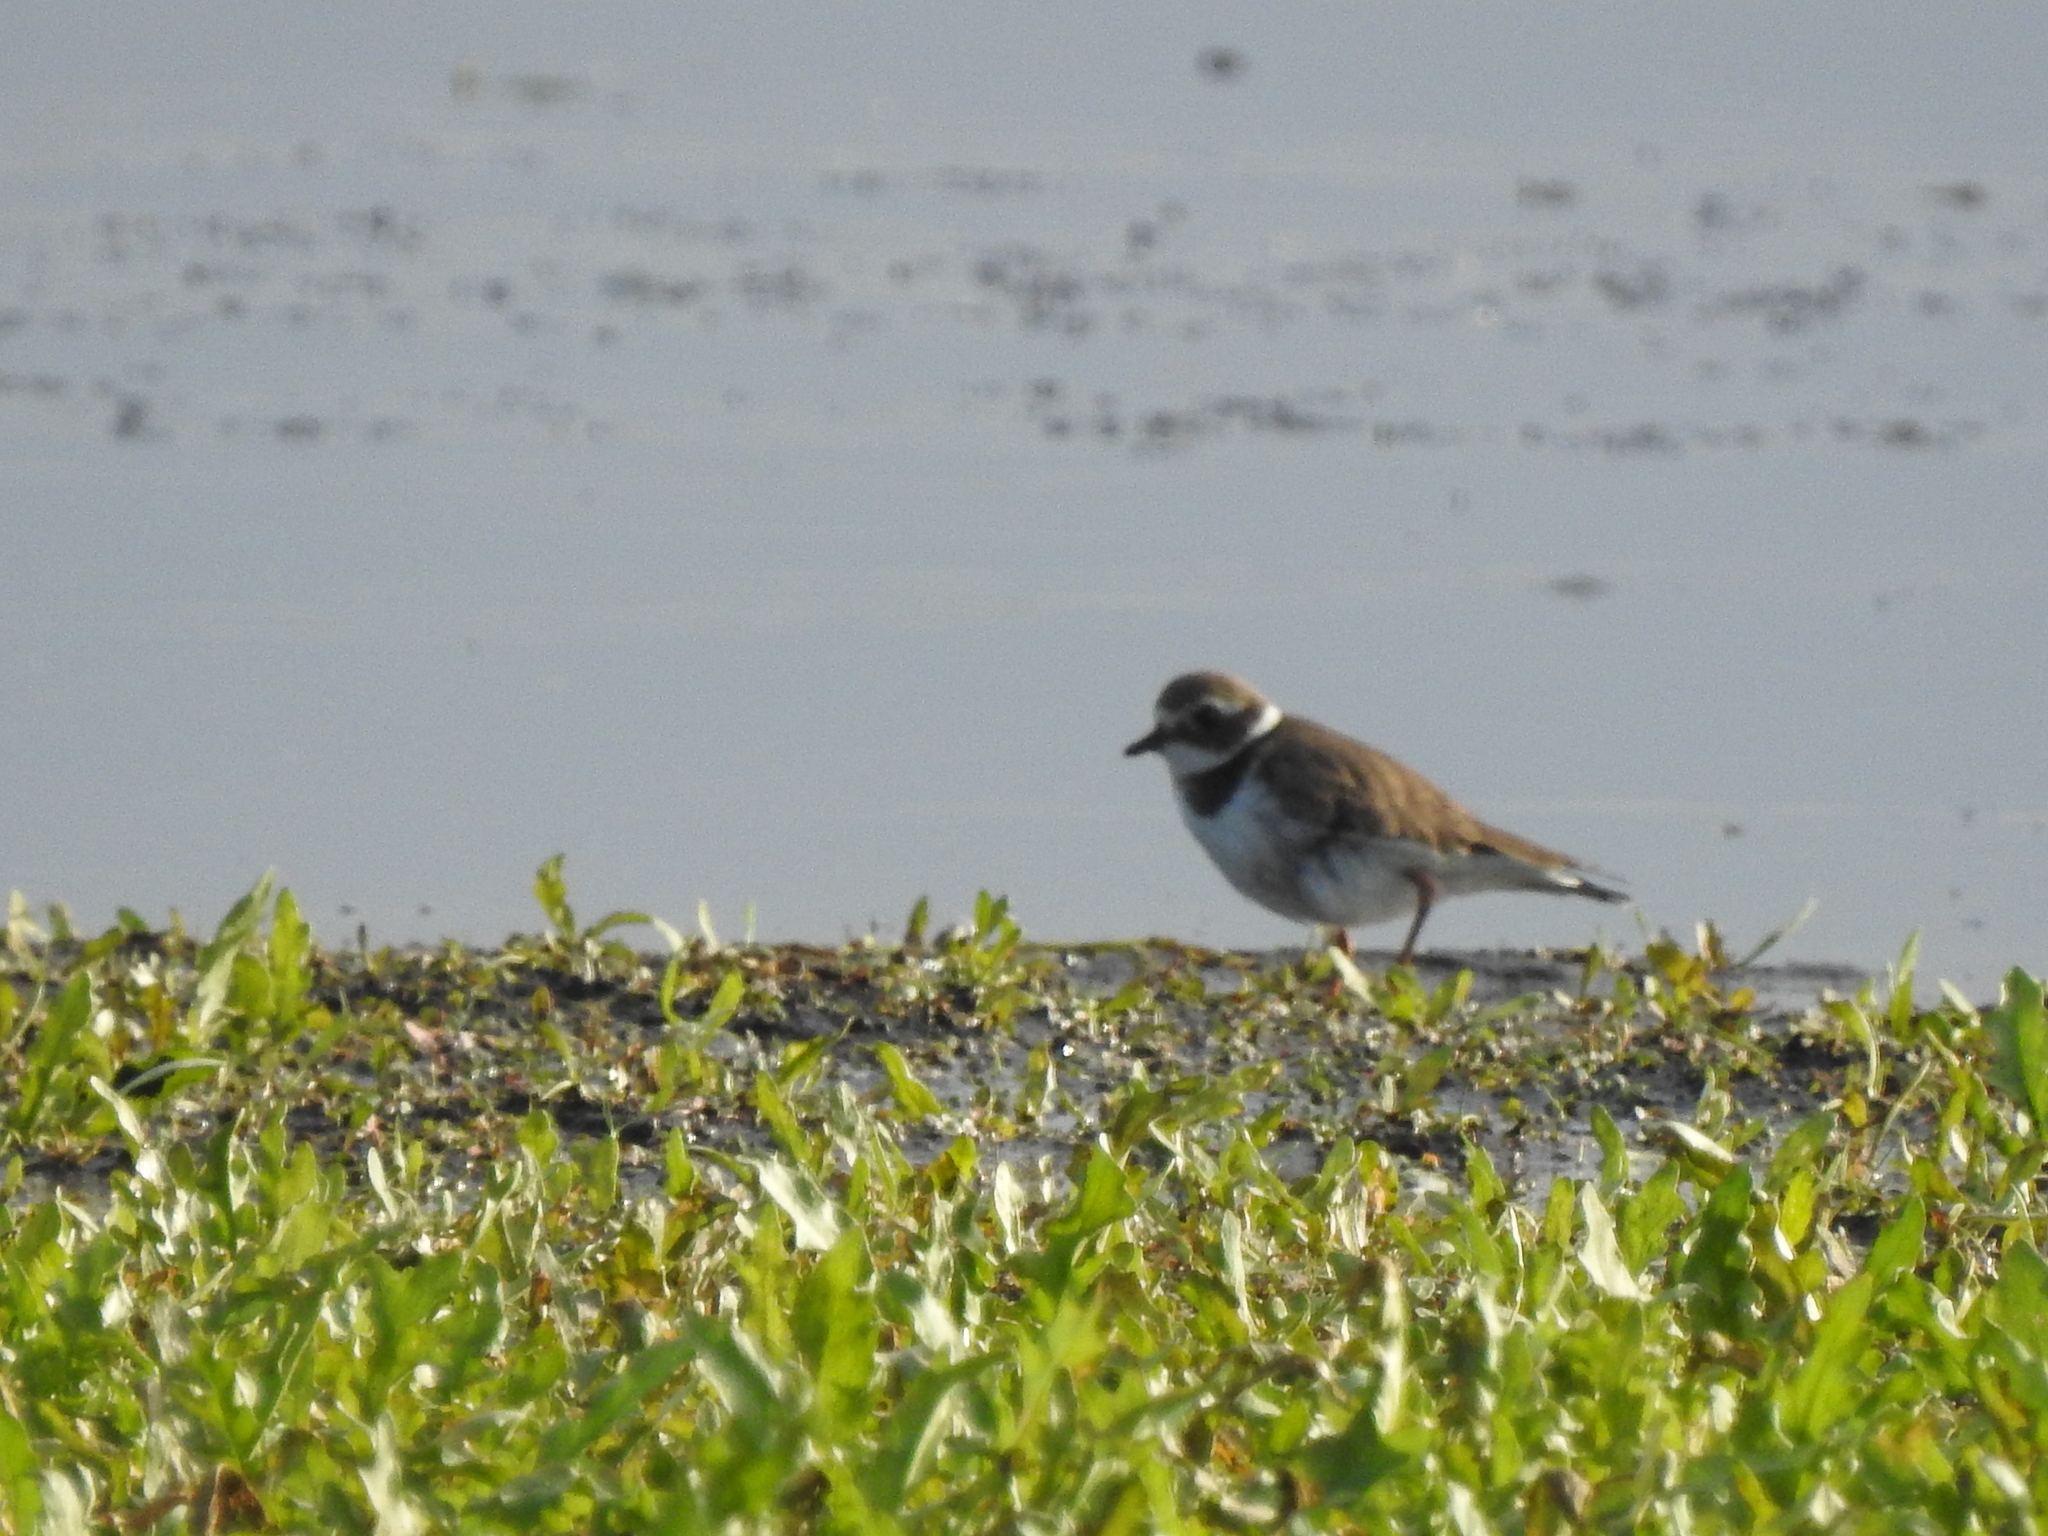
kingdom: Animalia
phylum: Chordata
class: Aves
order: Charadriiformes
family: Charadriidae
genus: Charadrius
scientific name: Charadrius hiaticula
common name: Common ringed plover
